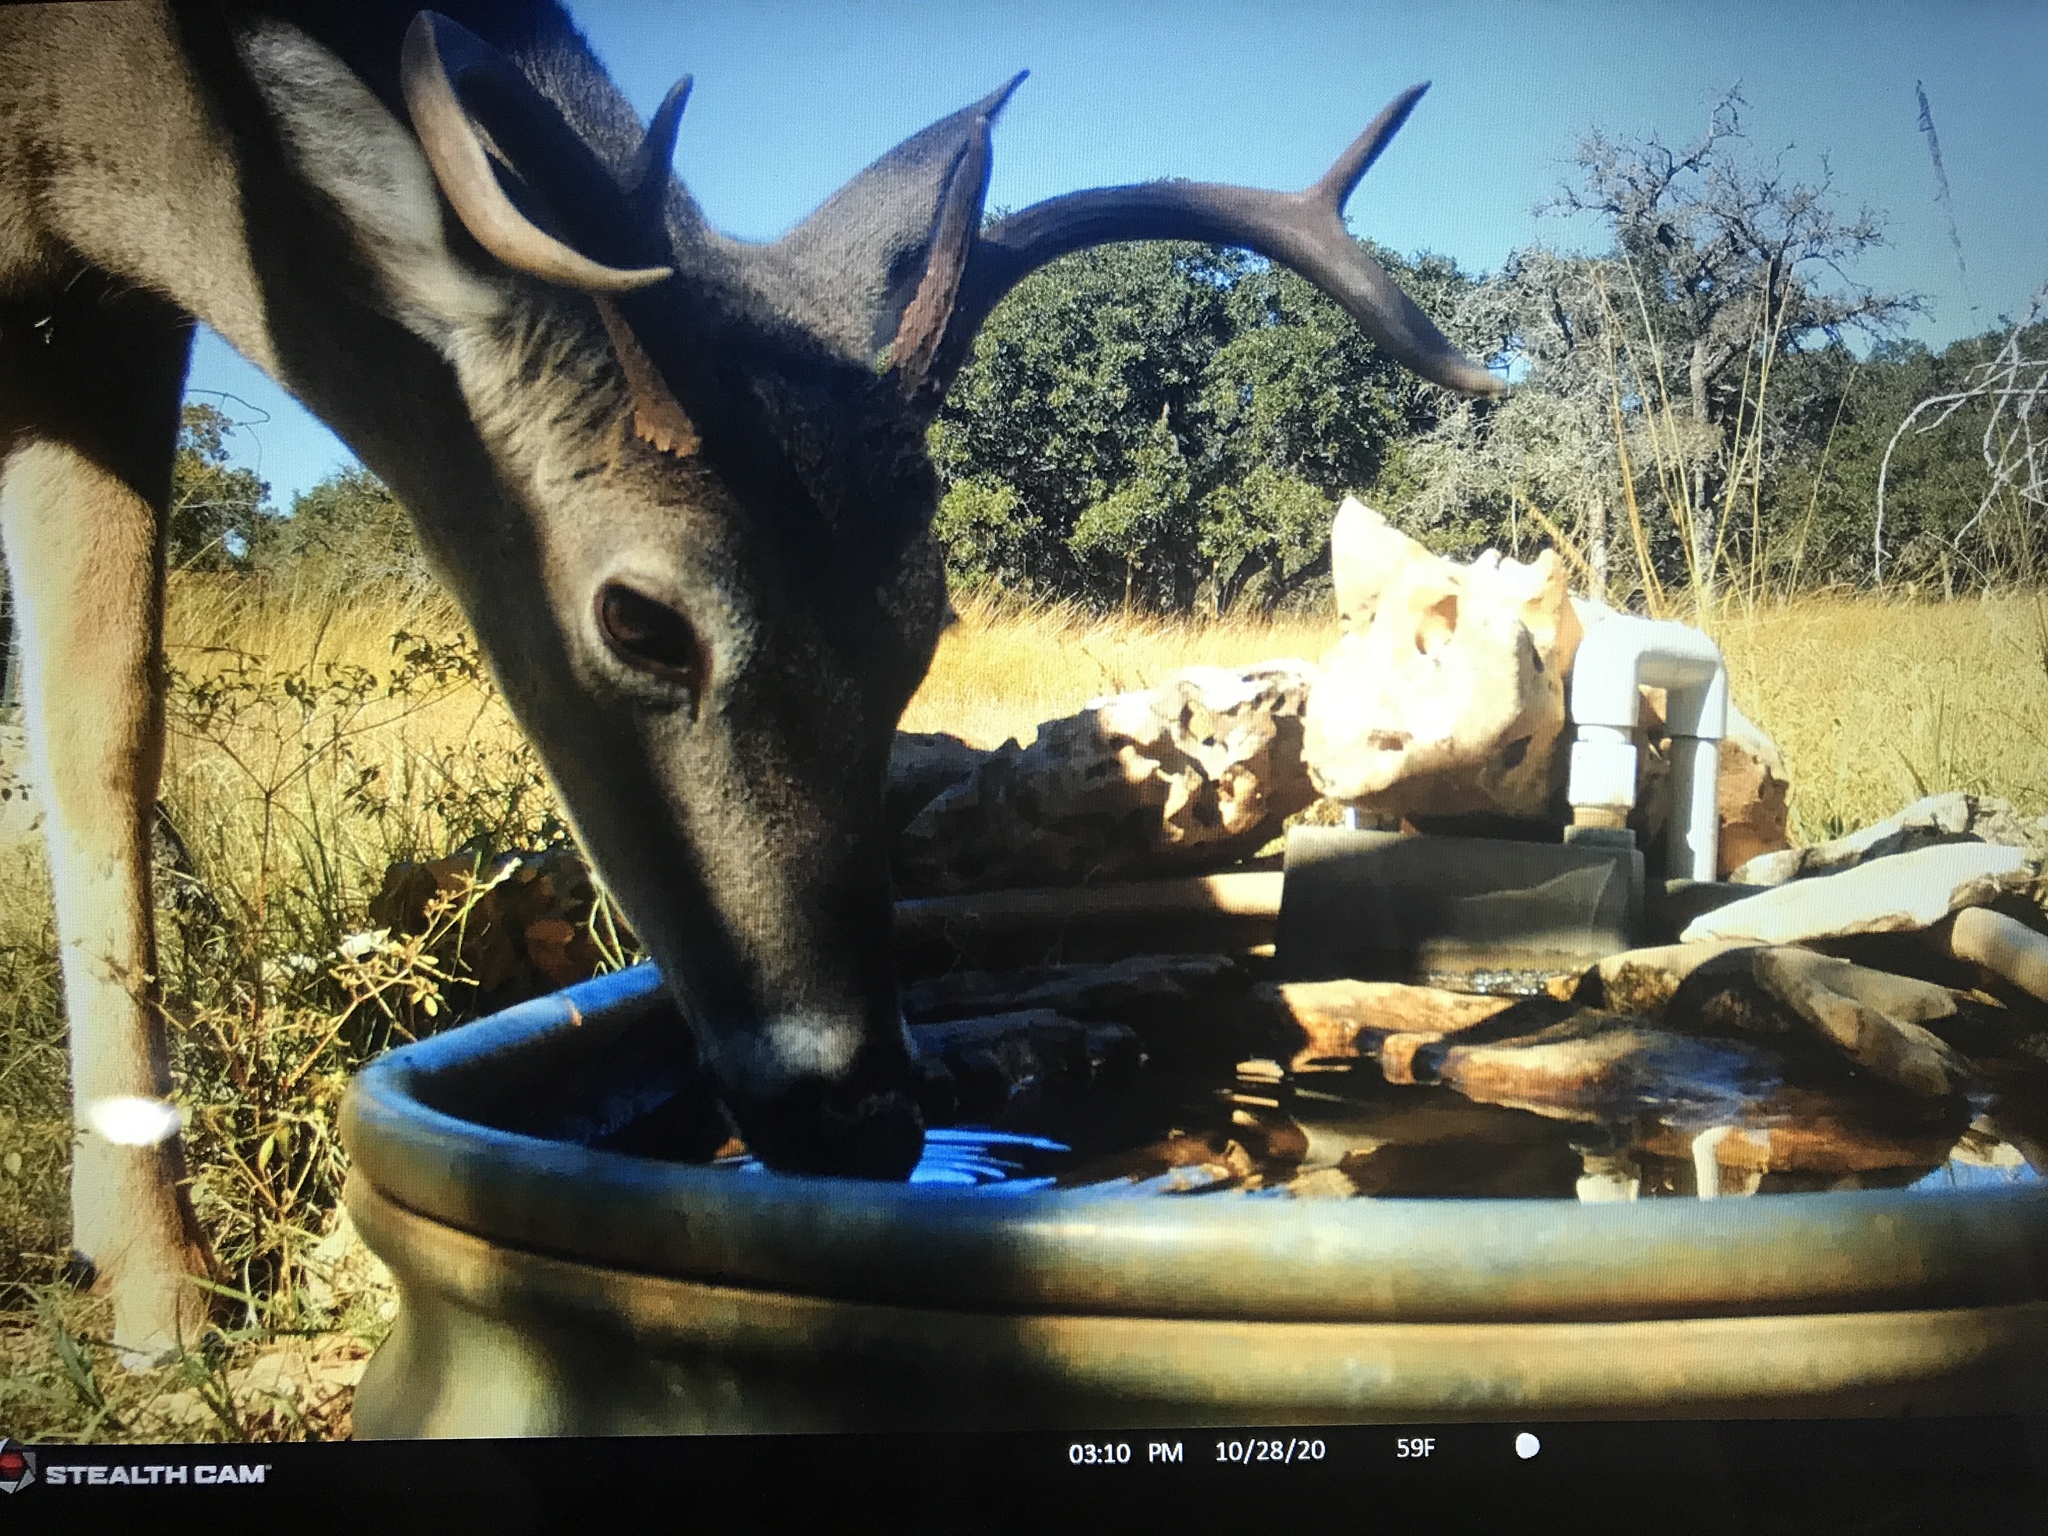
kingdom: Animalia
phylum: Chordata
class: Mammalia
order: Artiodactyla
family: Cervidae
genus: Odocoileus
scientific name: Odocoileus virginianus
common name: White-tailed deer
